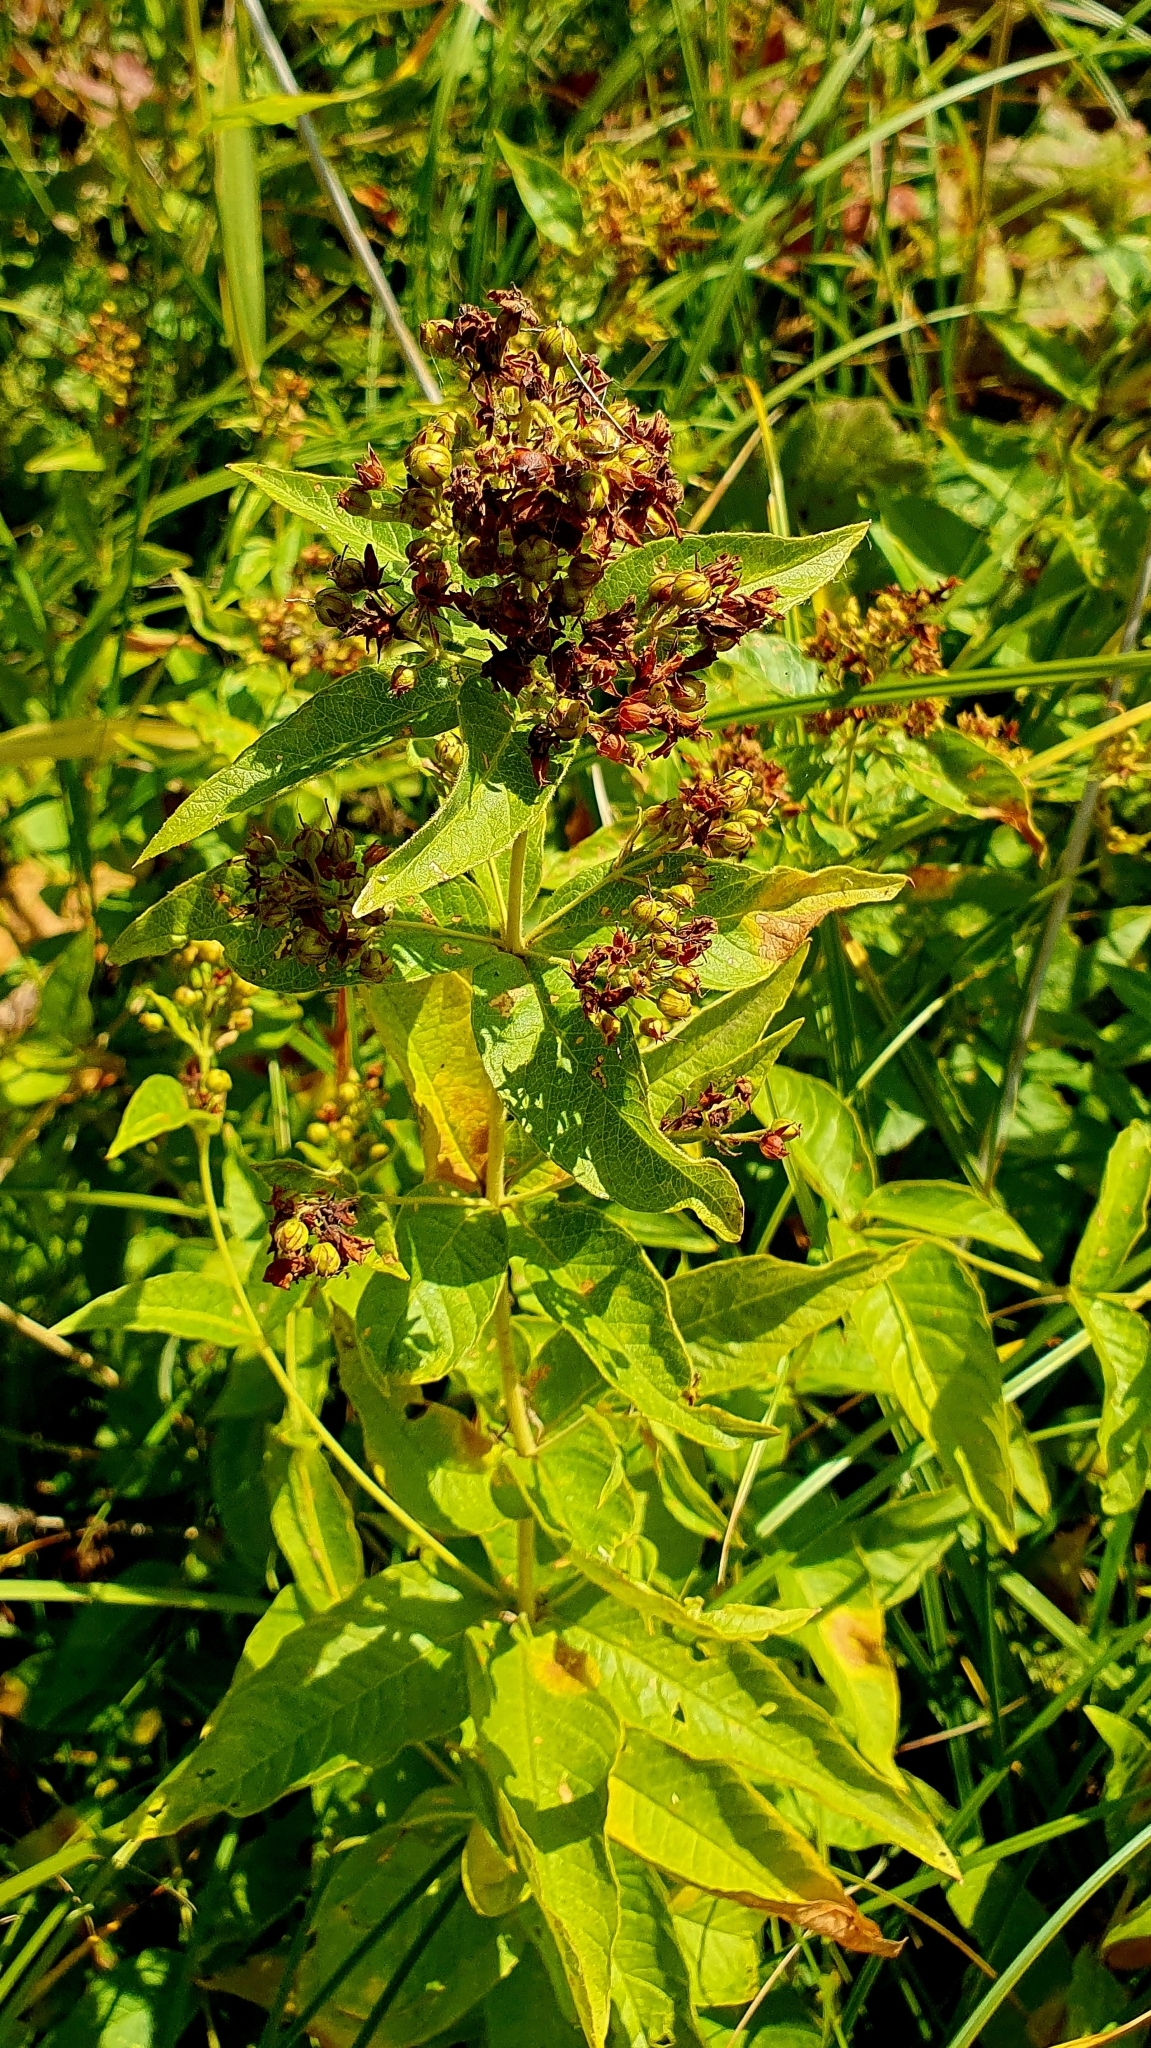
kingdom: Plantae
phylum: Tracheophyta
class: Magnoliopsida
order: Ericales
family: Primulaceae
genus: Lysimachia
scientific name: Lysimachia vulgaris
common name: Yellow loosestrife
